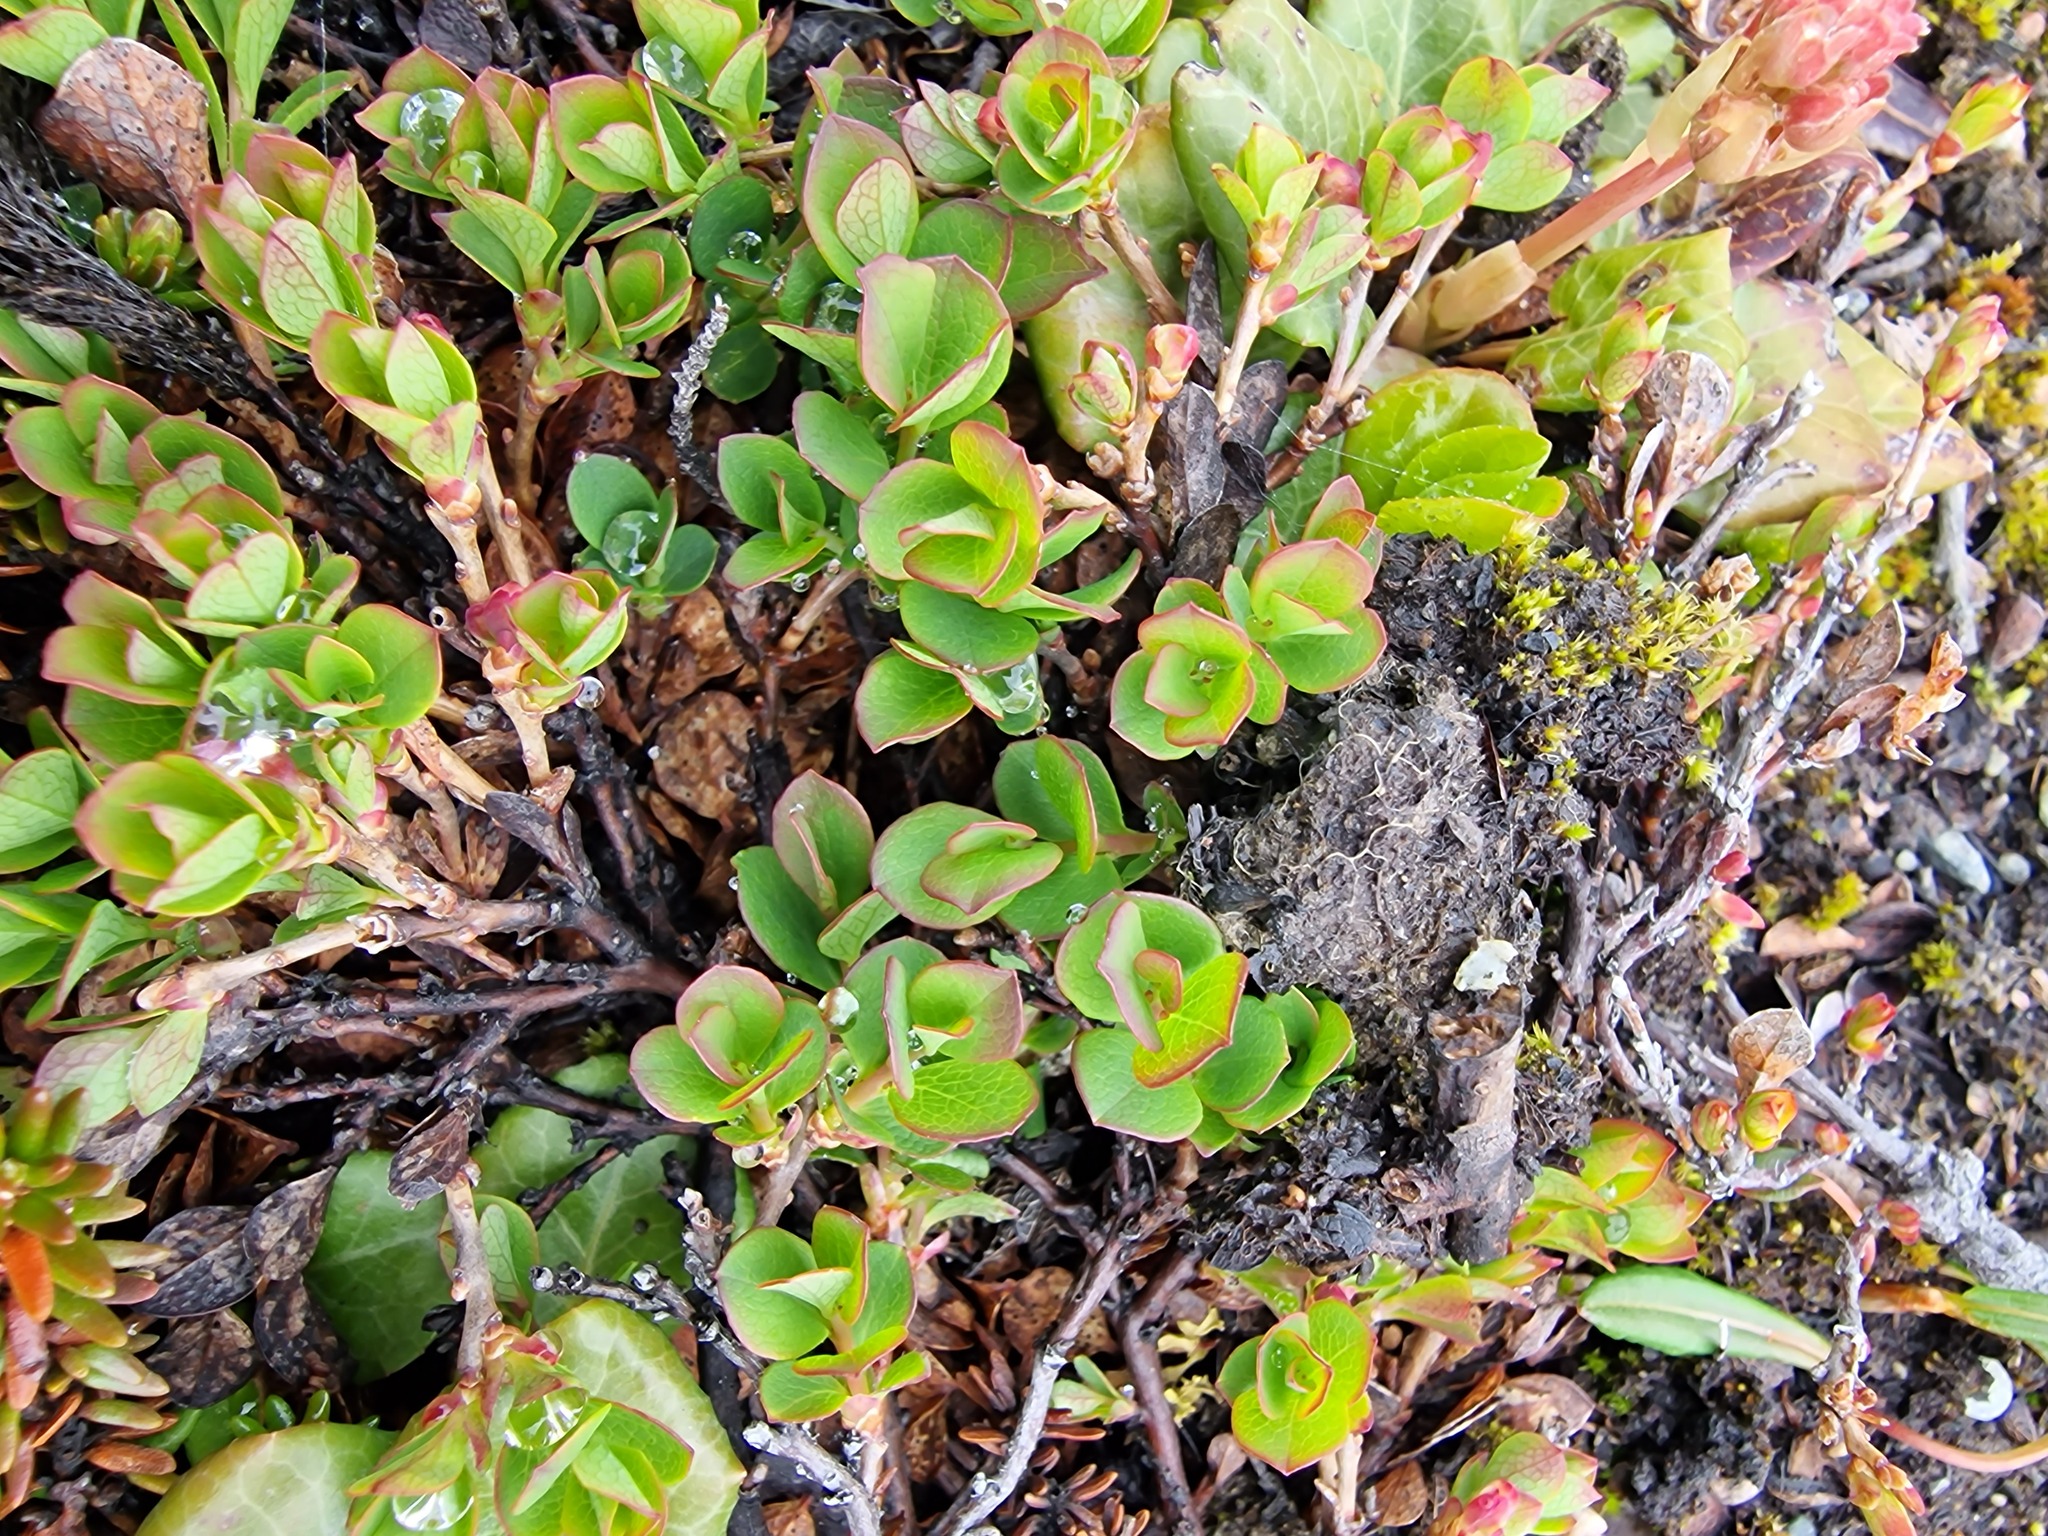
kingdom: Plantae
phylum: Tracheophyta
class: Magnoliopsida
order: Ericales
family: Ericaceae
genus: Vaccinium
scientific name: Vaccinium uliginosum
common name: Bog bilberry
